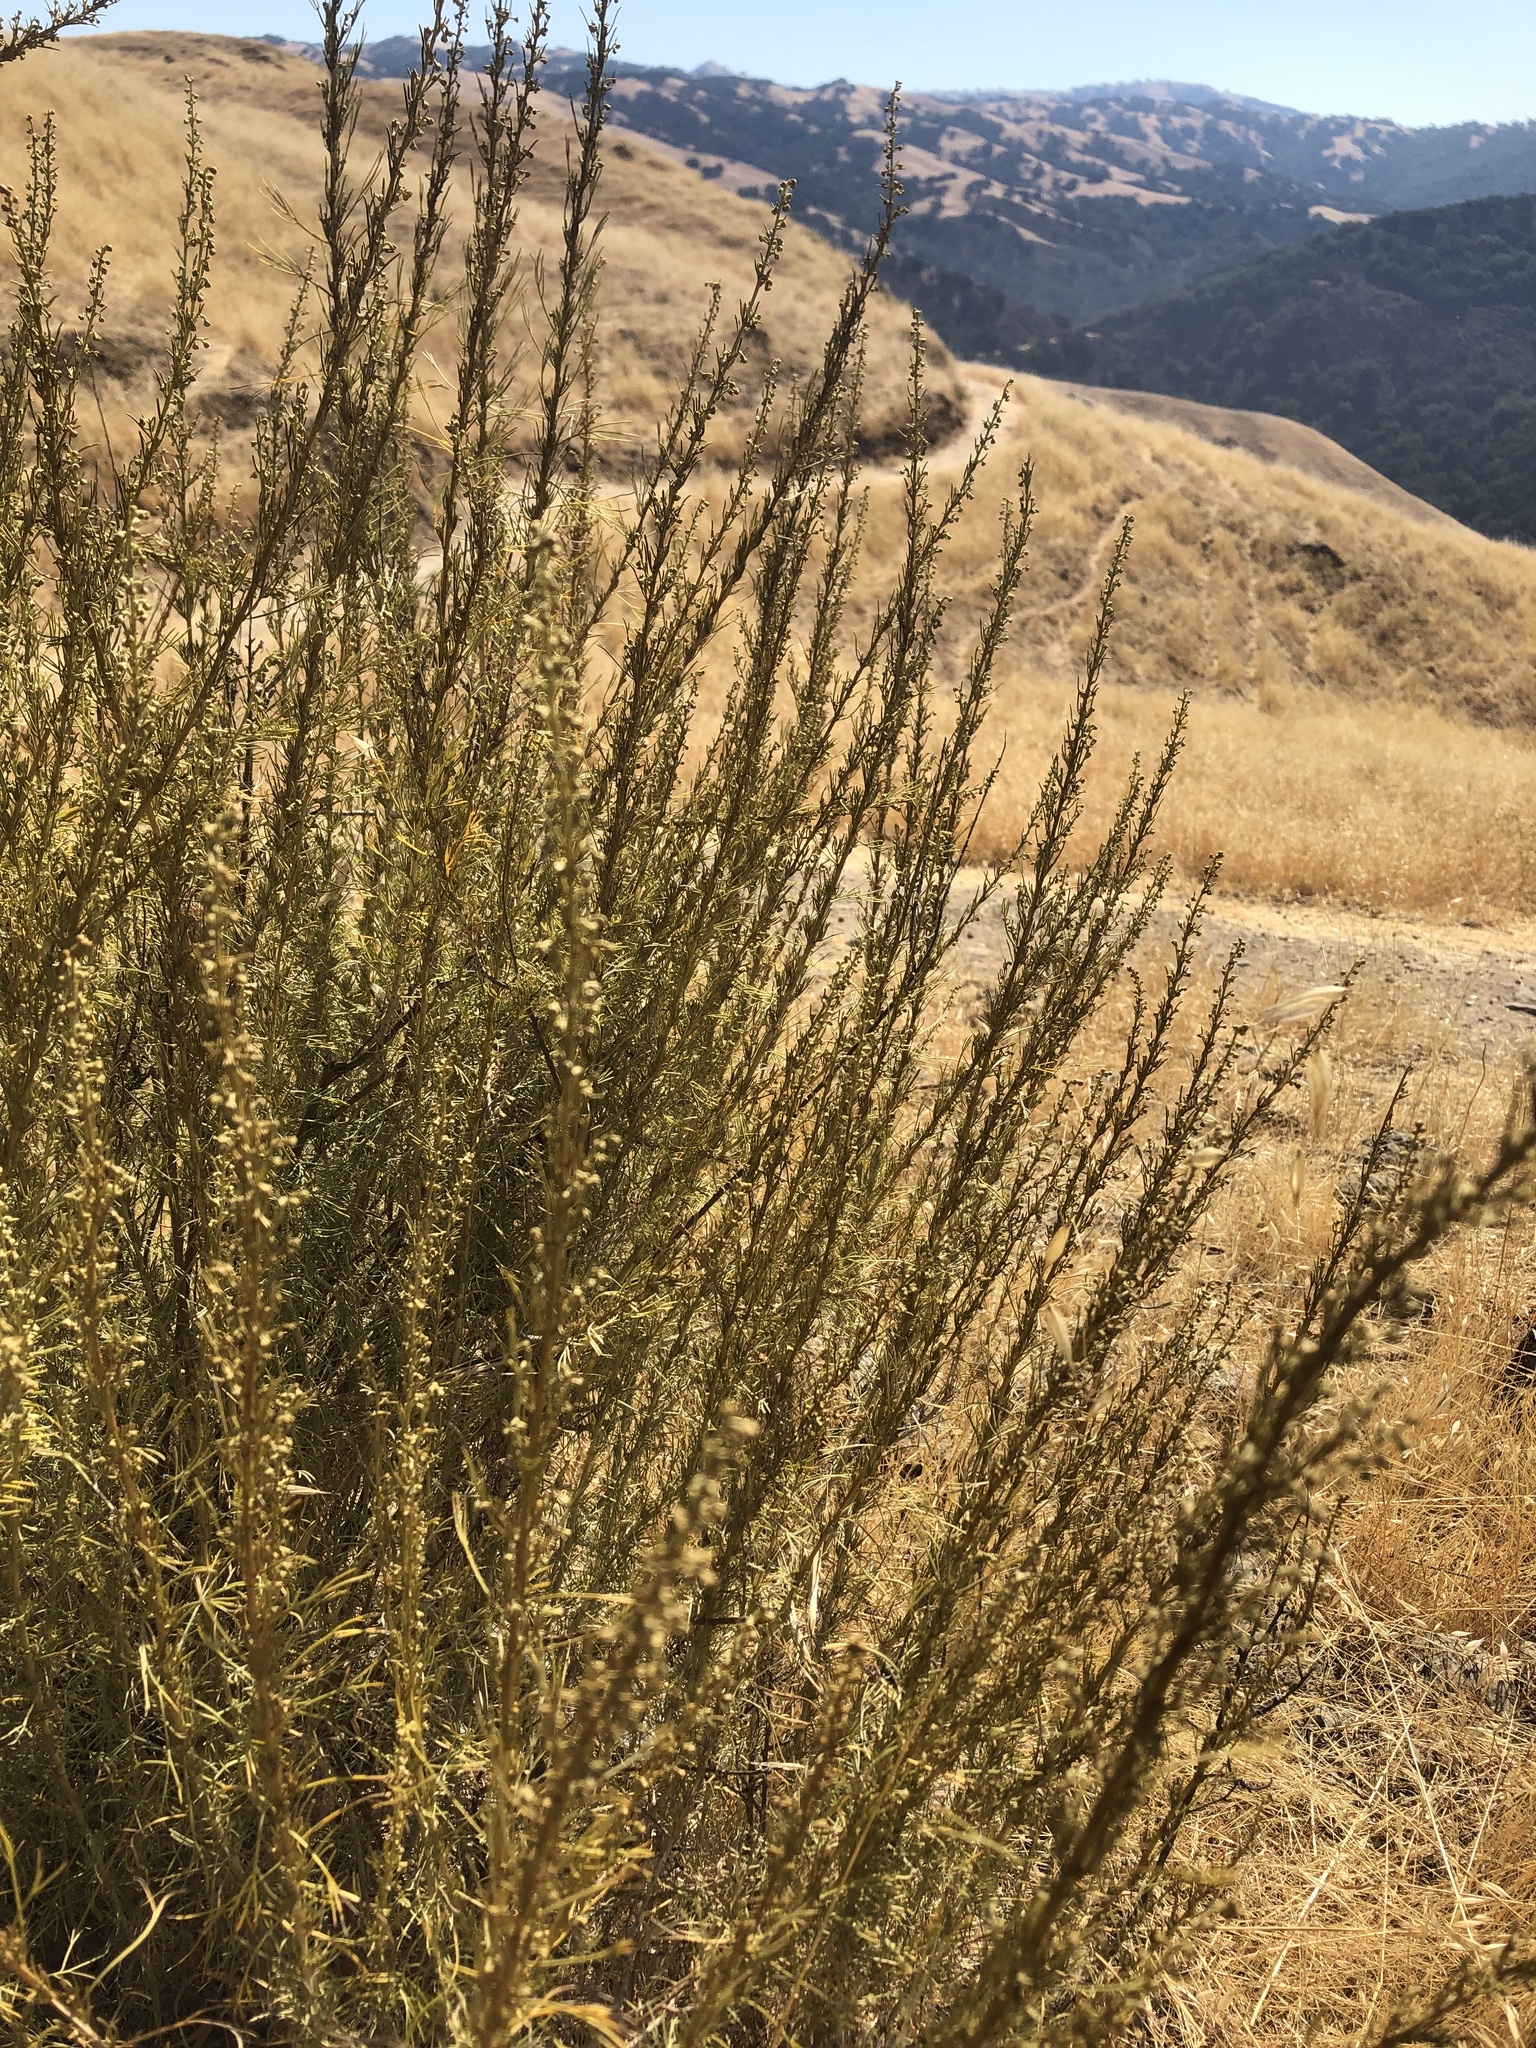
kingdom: Plantae
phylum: Tracheophyta
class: Magnoliopsida
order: Asterales
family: Asteraceae
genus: Artemisia
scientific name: Artemisia californica
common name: California sagebrush
